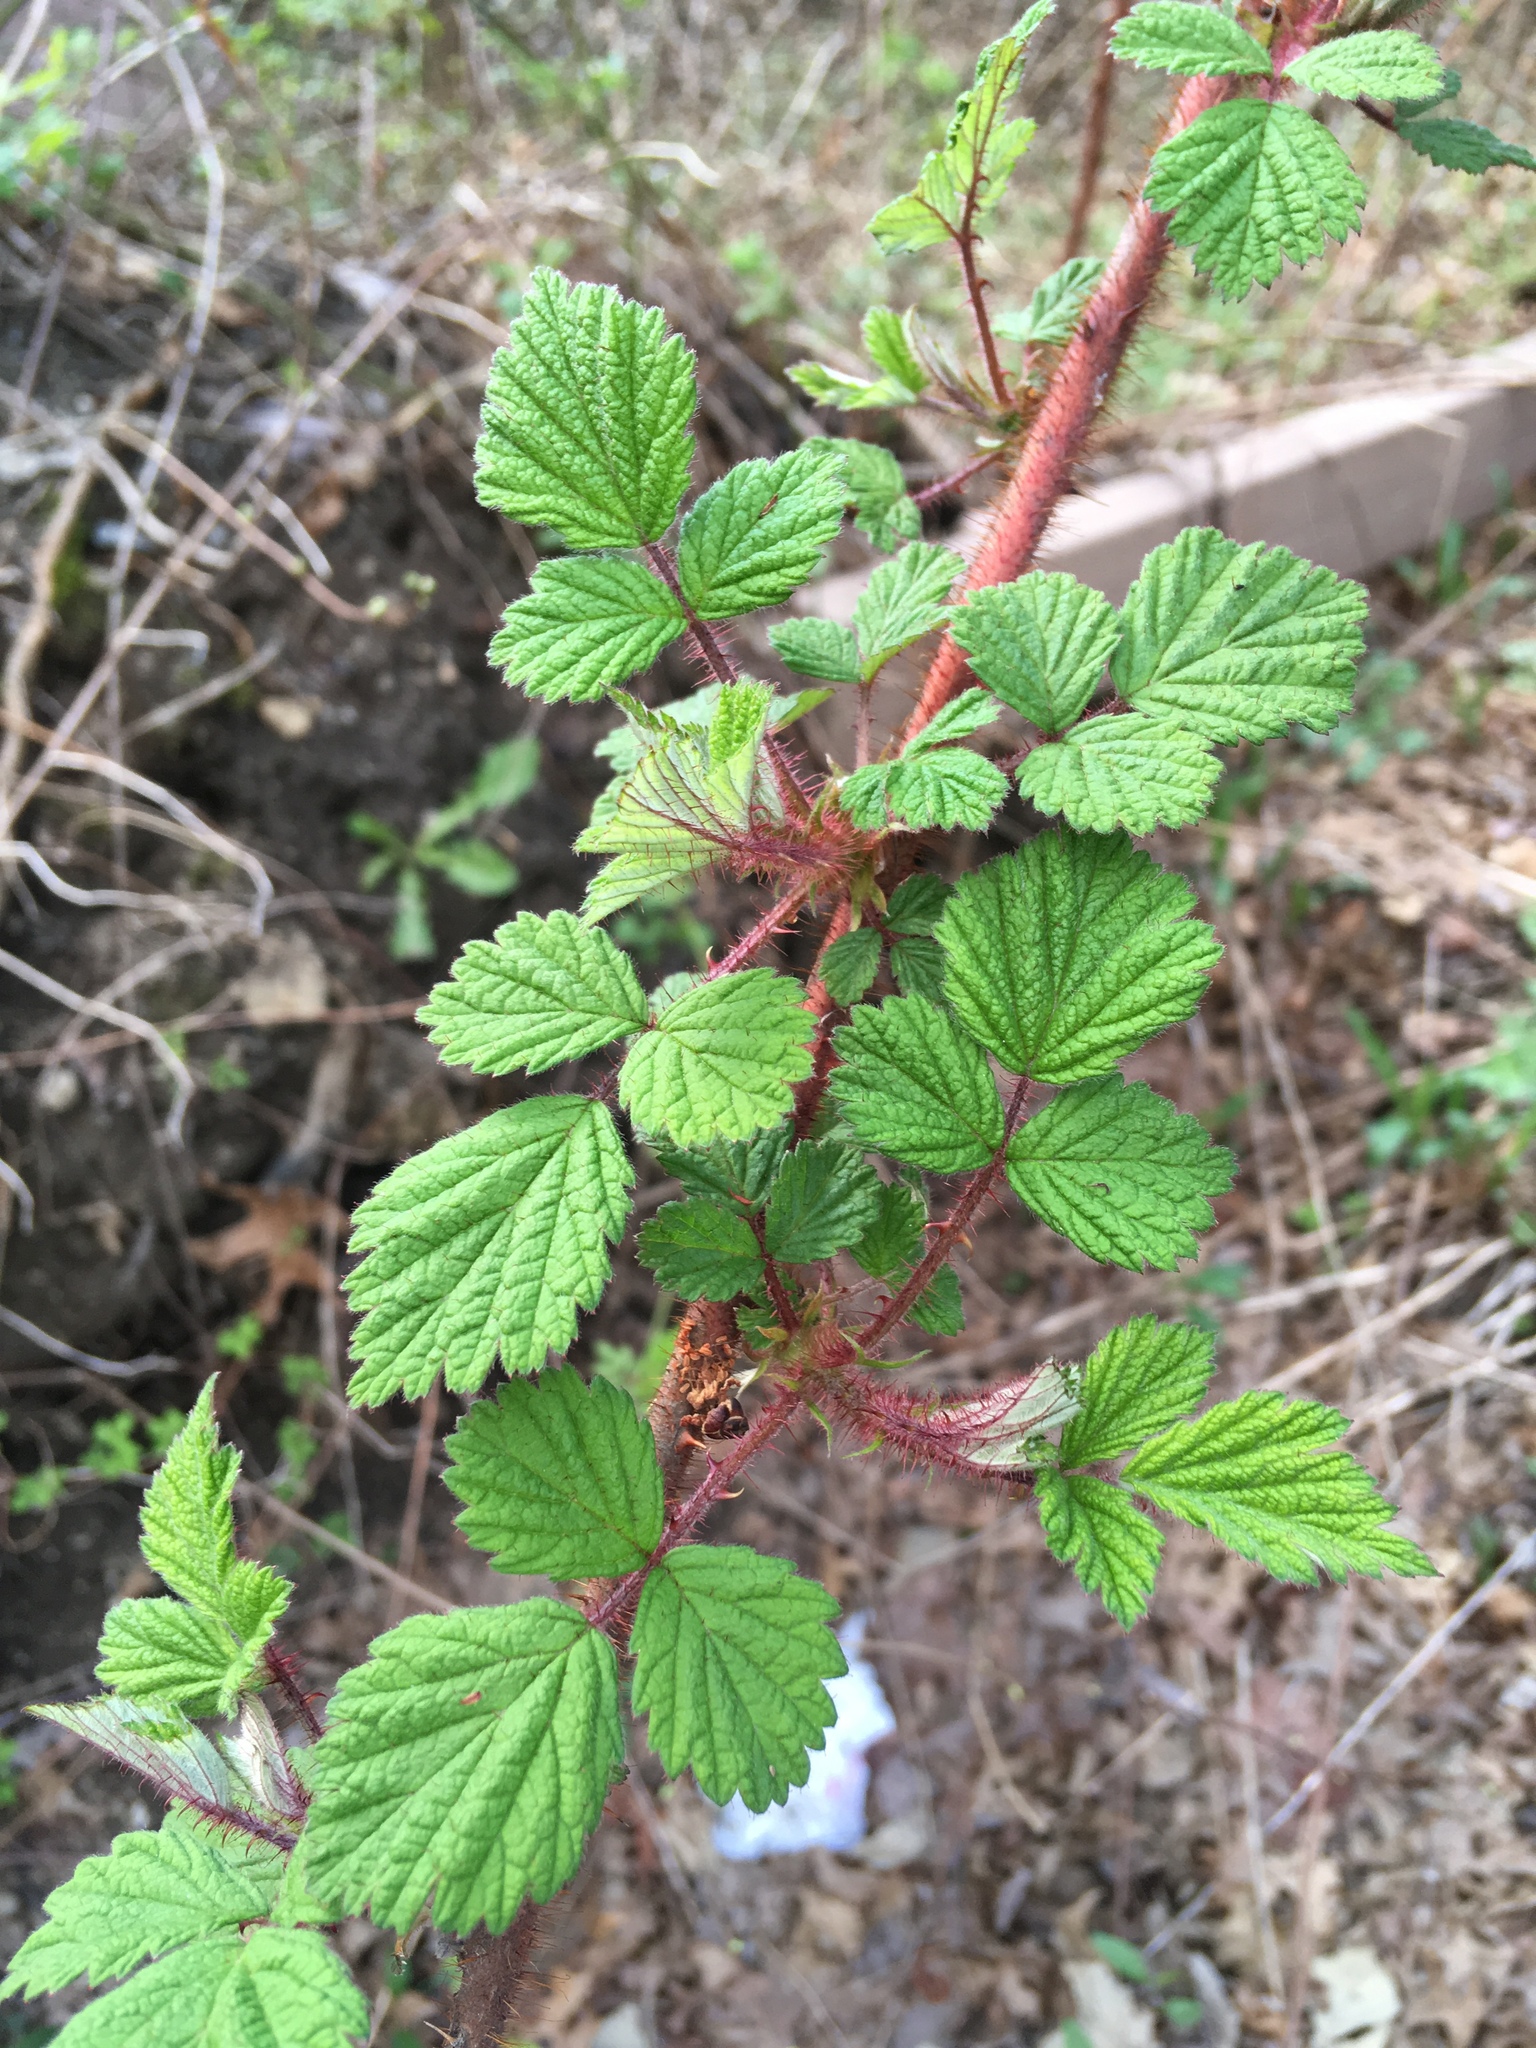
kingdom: Plantae
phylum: Tracheophyta
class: Magnoliopsida
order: Rosales
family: Rosaceae
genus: Rubus
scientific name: Rubus phoenicolasius
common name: Japanese wineberry
